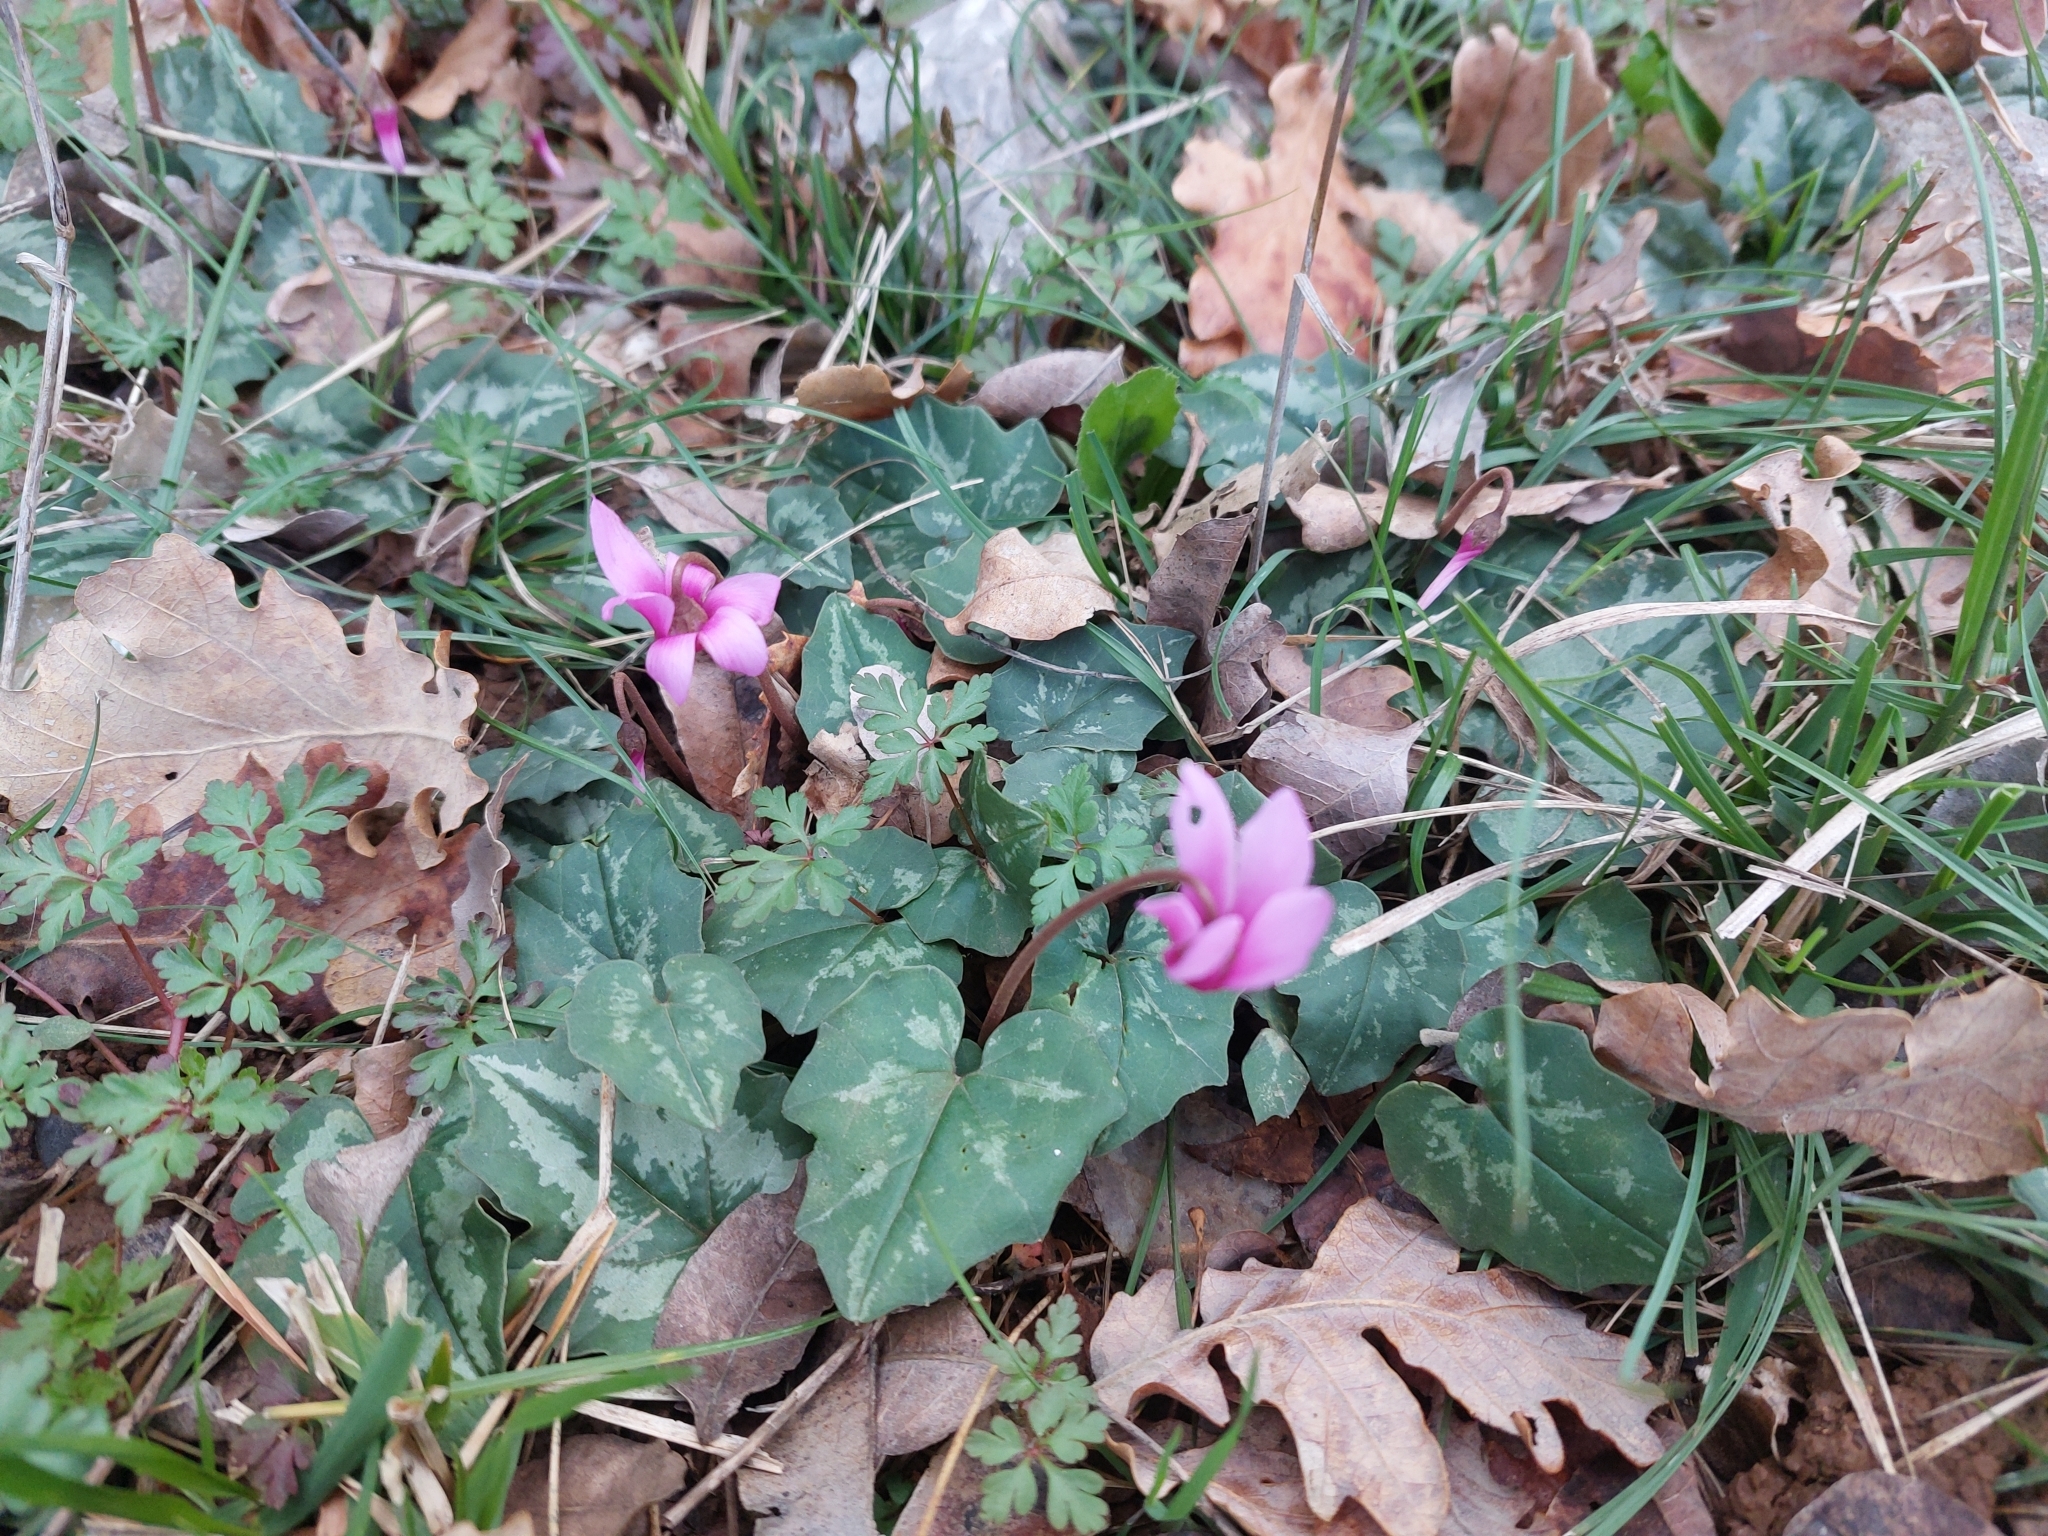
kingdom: Plantae
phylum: Tracheophyta
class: Magnoliopsida
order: Ericales
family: Primulaceae
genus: Cyclamen
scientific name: Cyclamen repandum
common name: Spring sowbread
